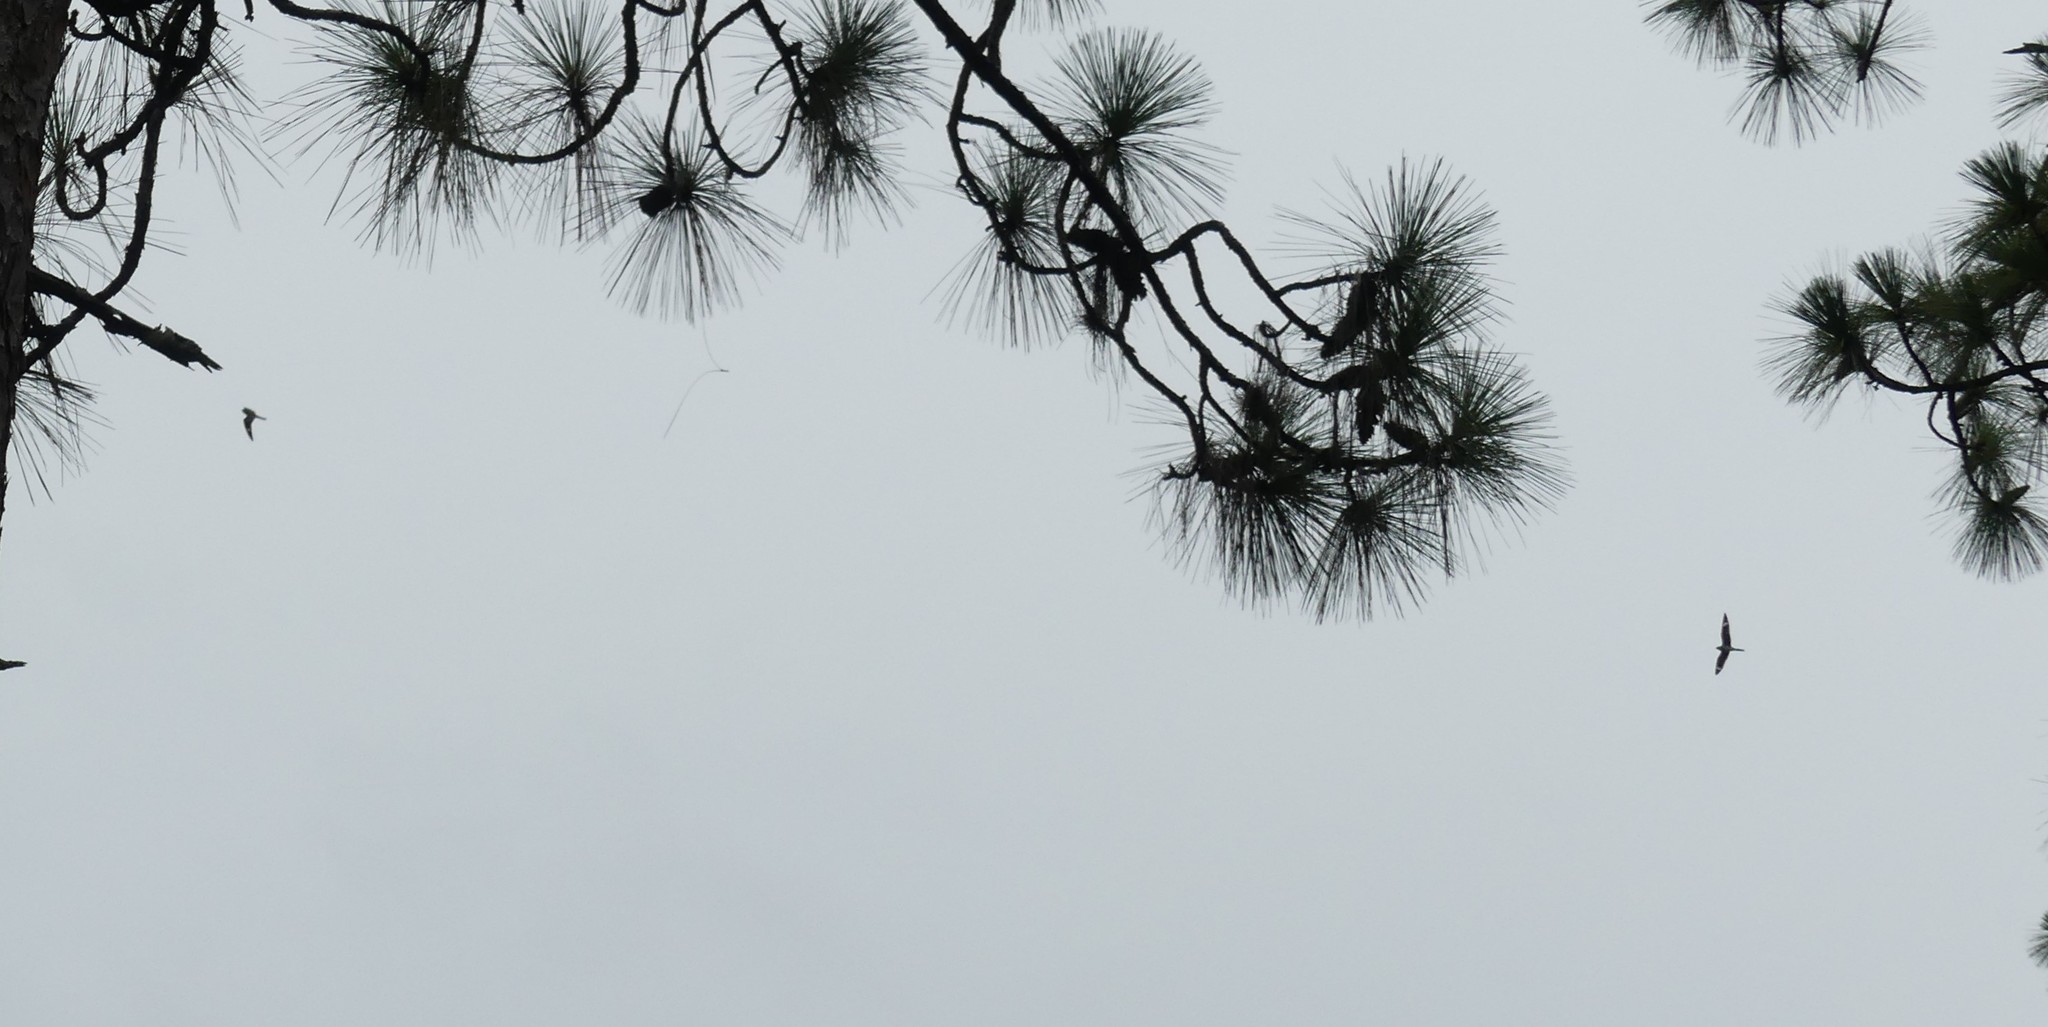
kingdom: Animalia
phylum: Chordata
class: Aves
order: Caprimulgiformes
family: Caprimulgidae
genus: Chordeiles
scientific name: Chordeiles minor
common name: Common nighthawk
